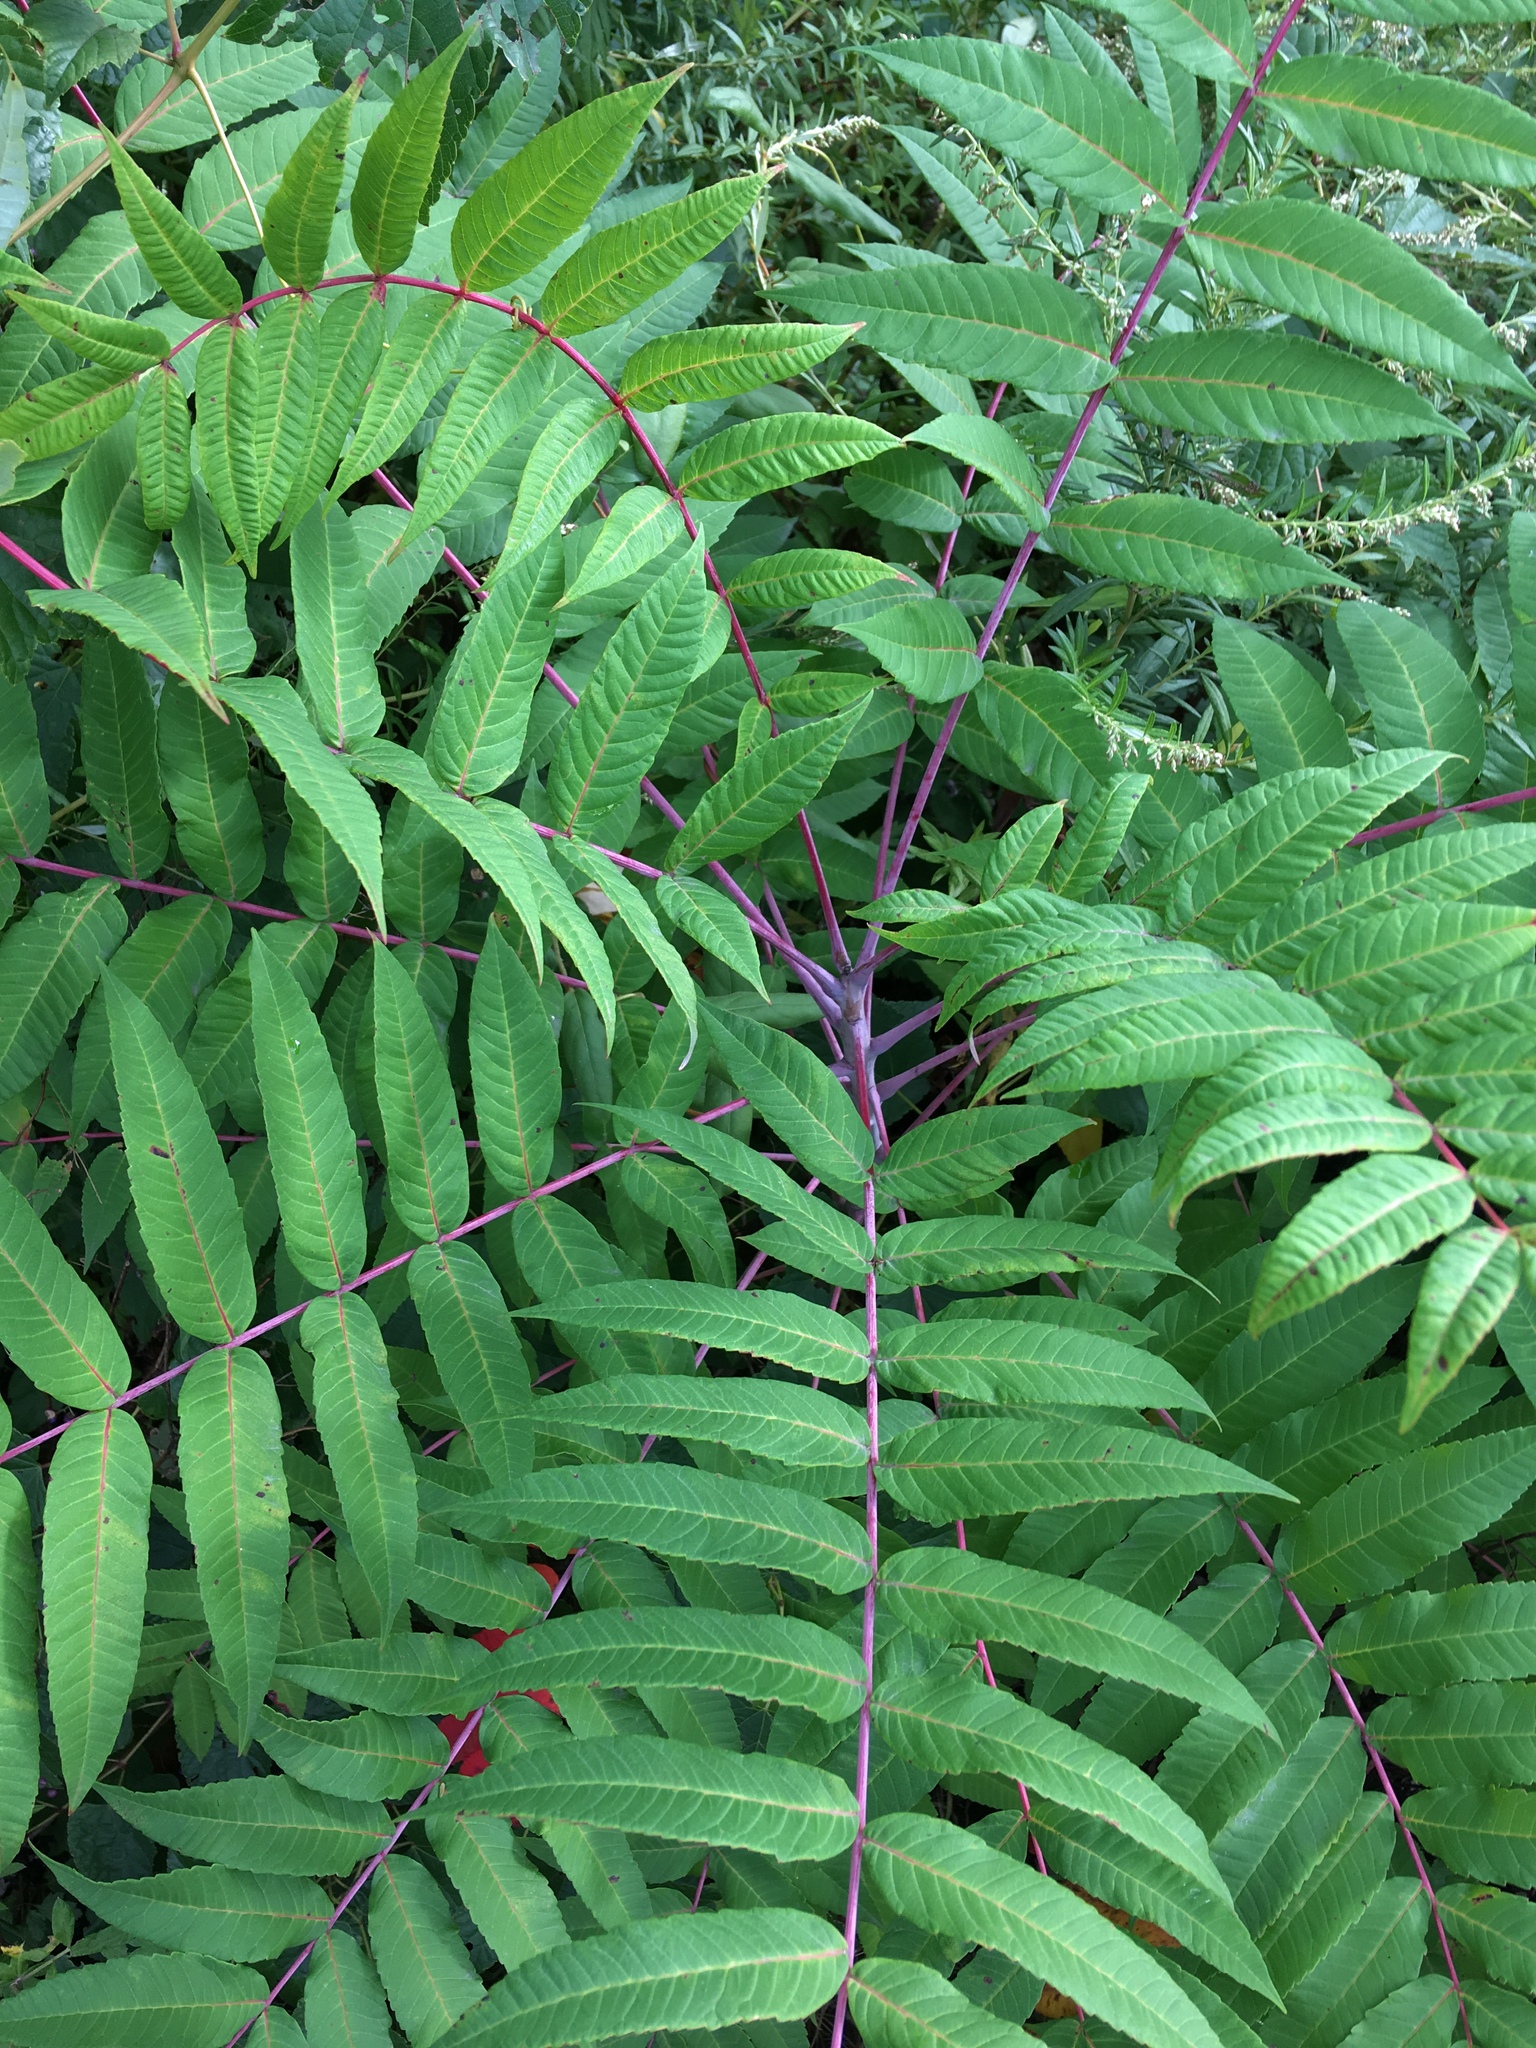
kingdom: Plantae
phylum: Tracheophyta
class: Magnoliopsida
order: Sapindales
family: Anacardiaceae
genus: Rhus
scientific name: Rhus glabra
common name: Scarlet sumac
